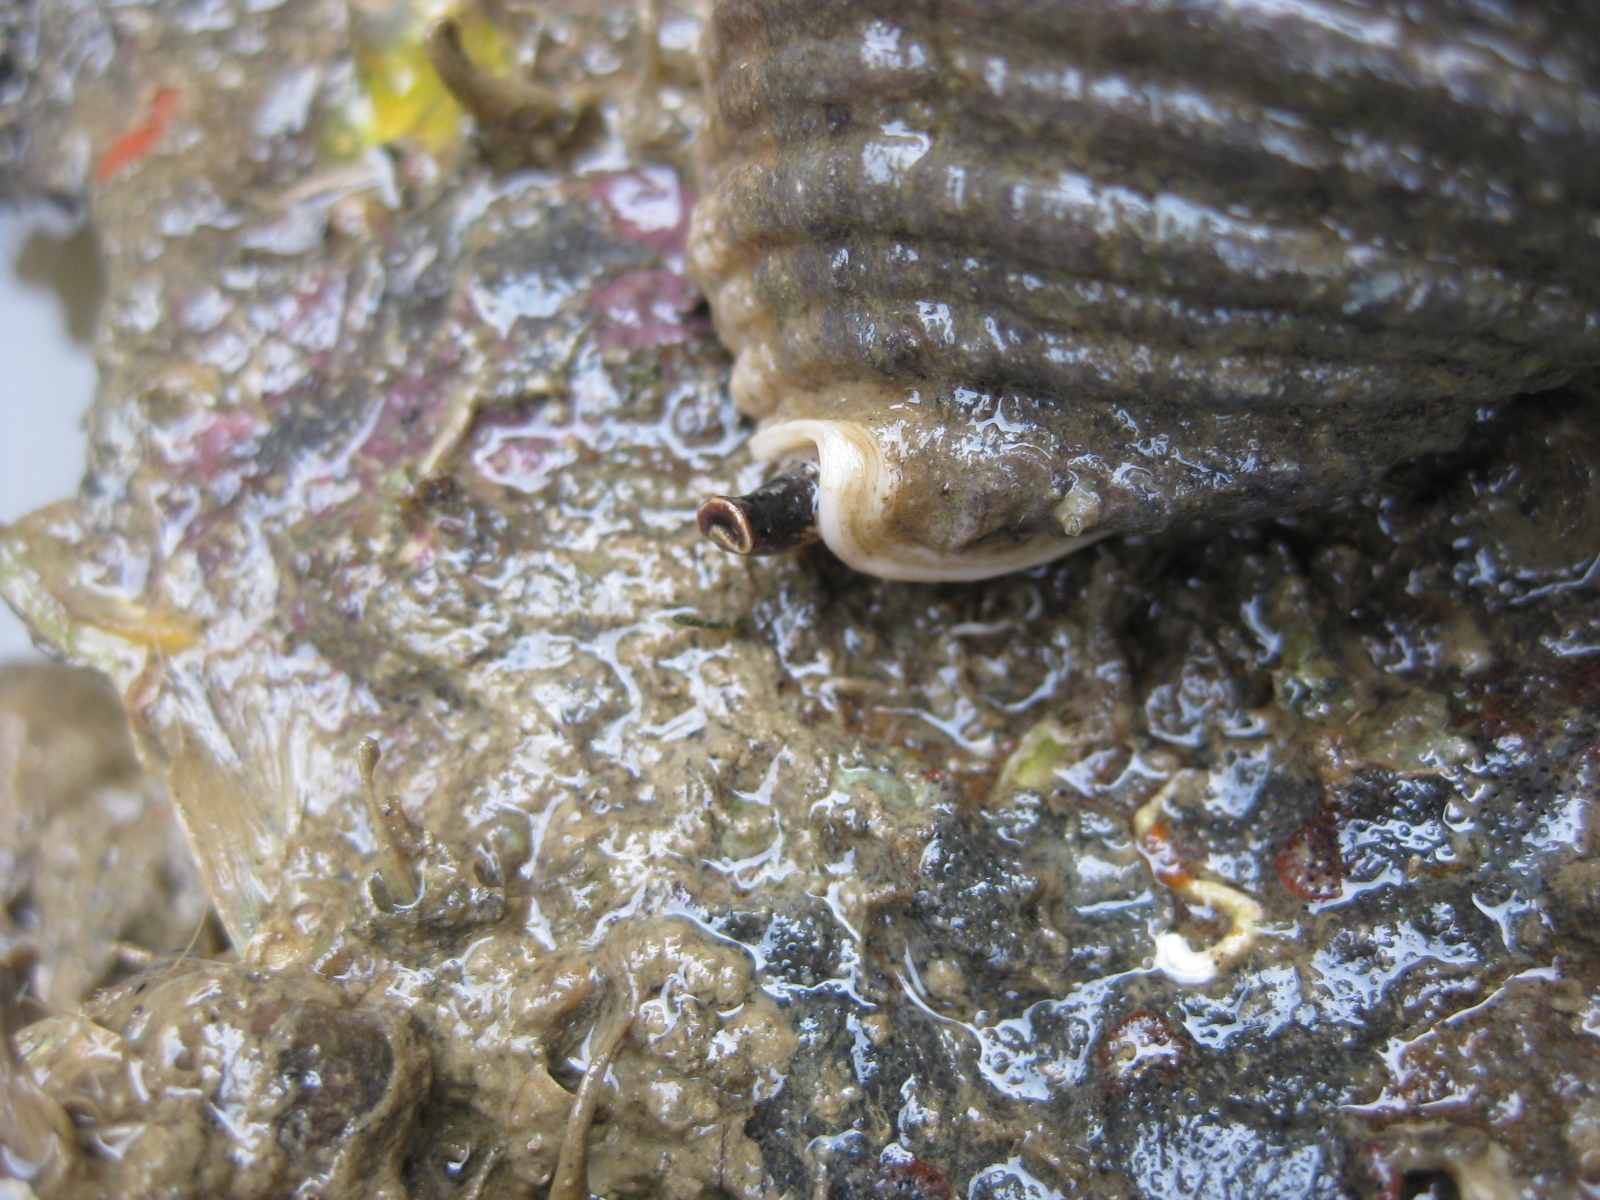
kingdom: Animalia
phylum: Mollusca
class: Gastropoda
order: Neogastropoda
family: Muricidae
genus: Dicathais
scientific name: Dicathais orbita
